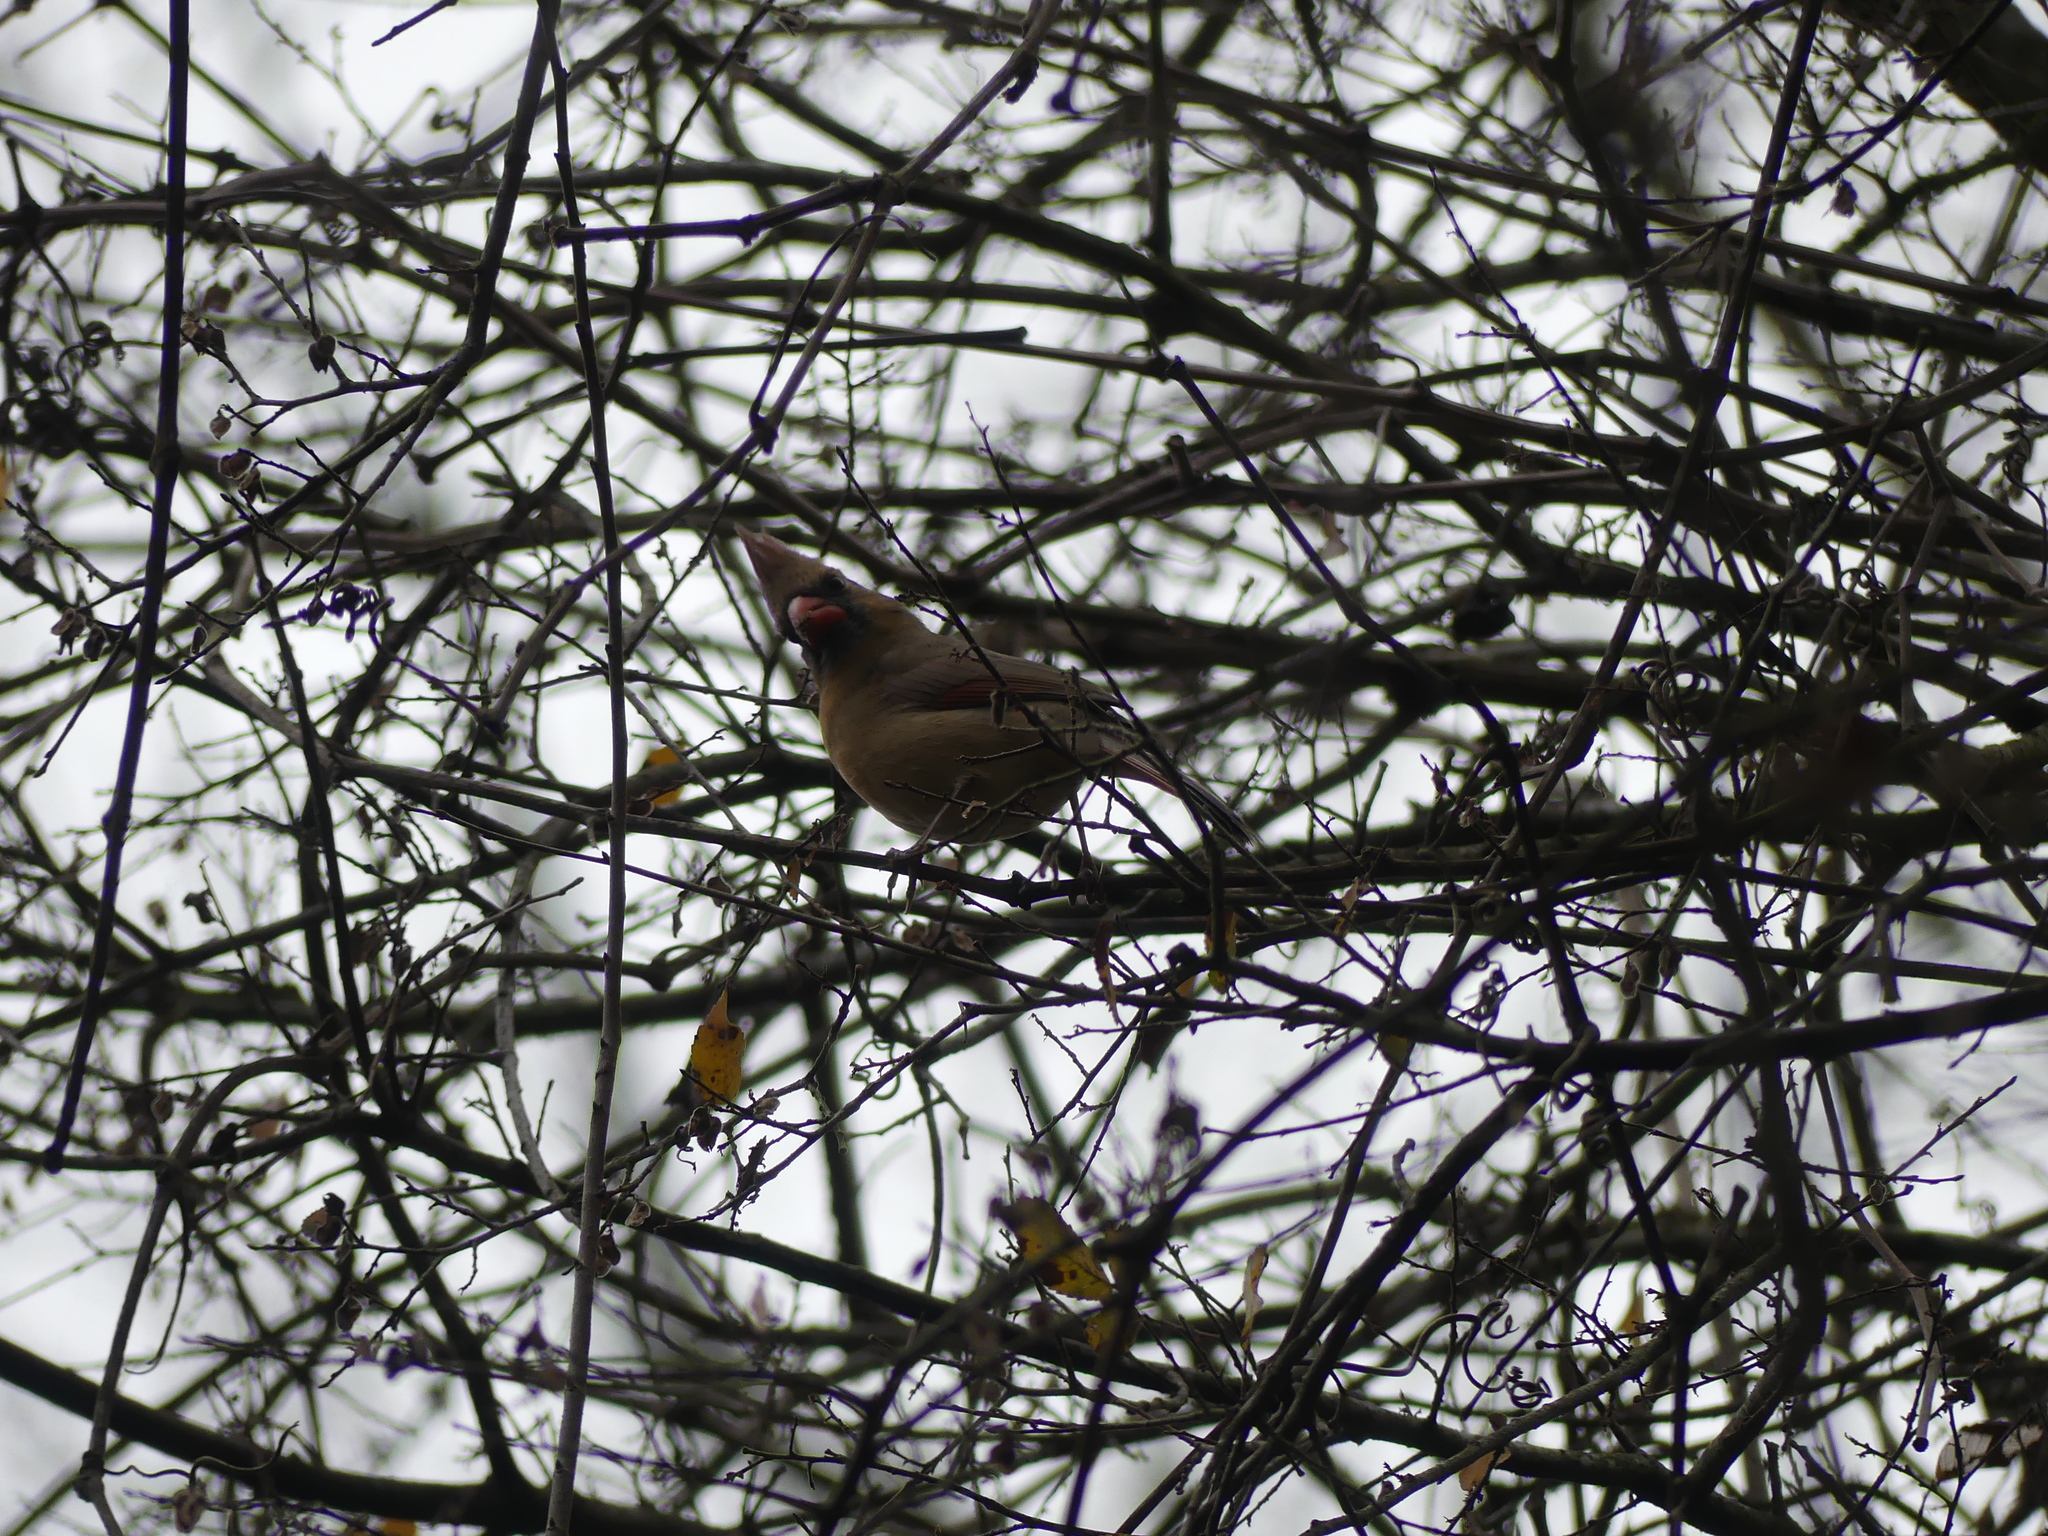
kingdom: Animalia
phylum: Chordata
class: Aves
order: Passeriformes
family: Cardinalidae
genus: Cardinalis
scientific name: Cardinalis cardinalis
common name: Northern cardinal
